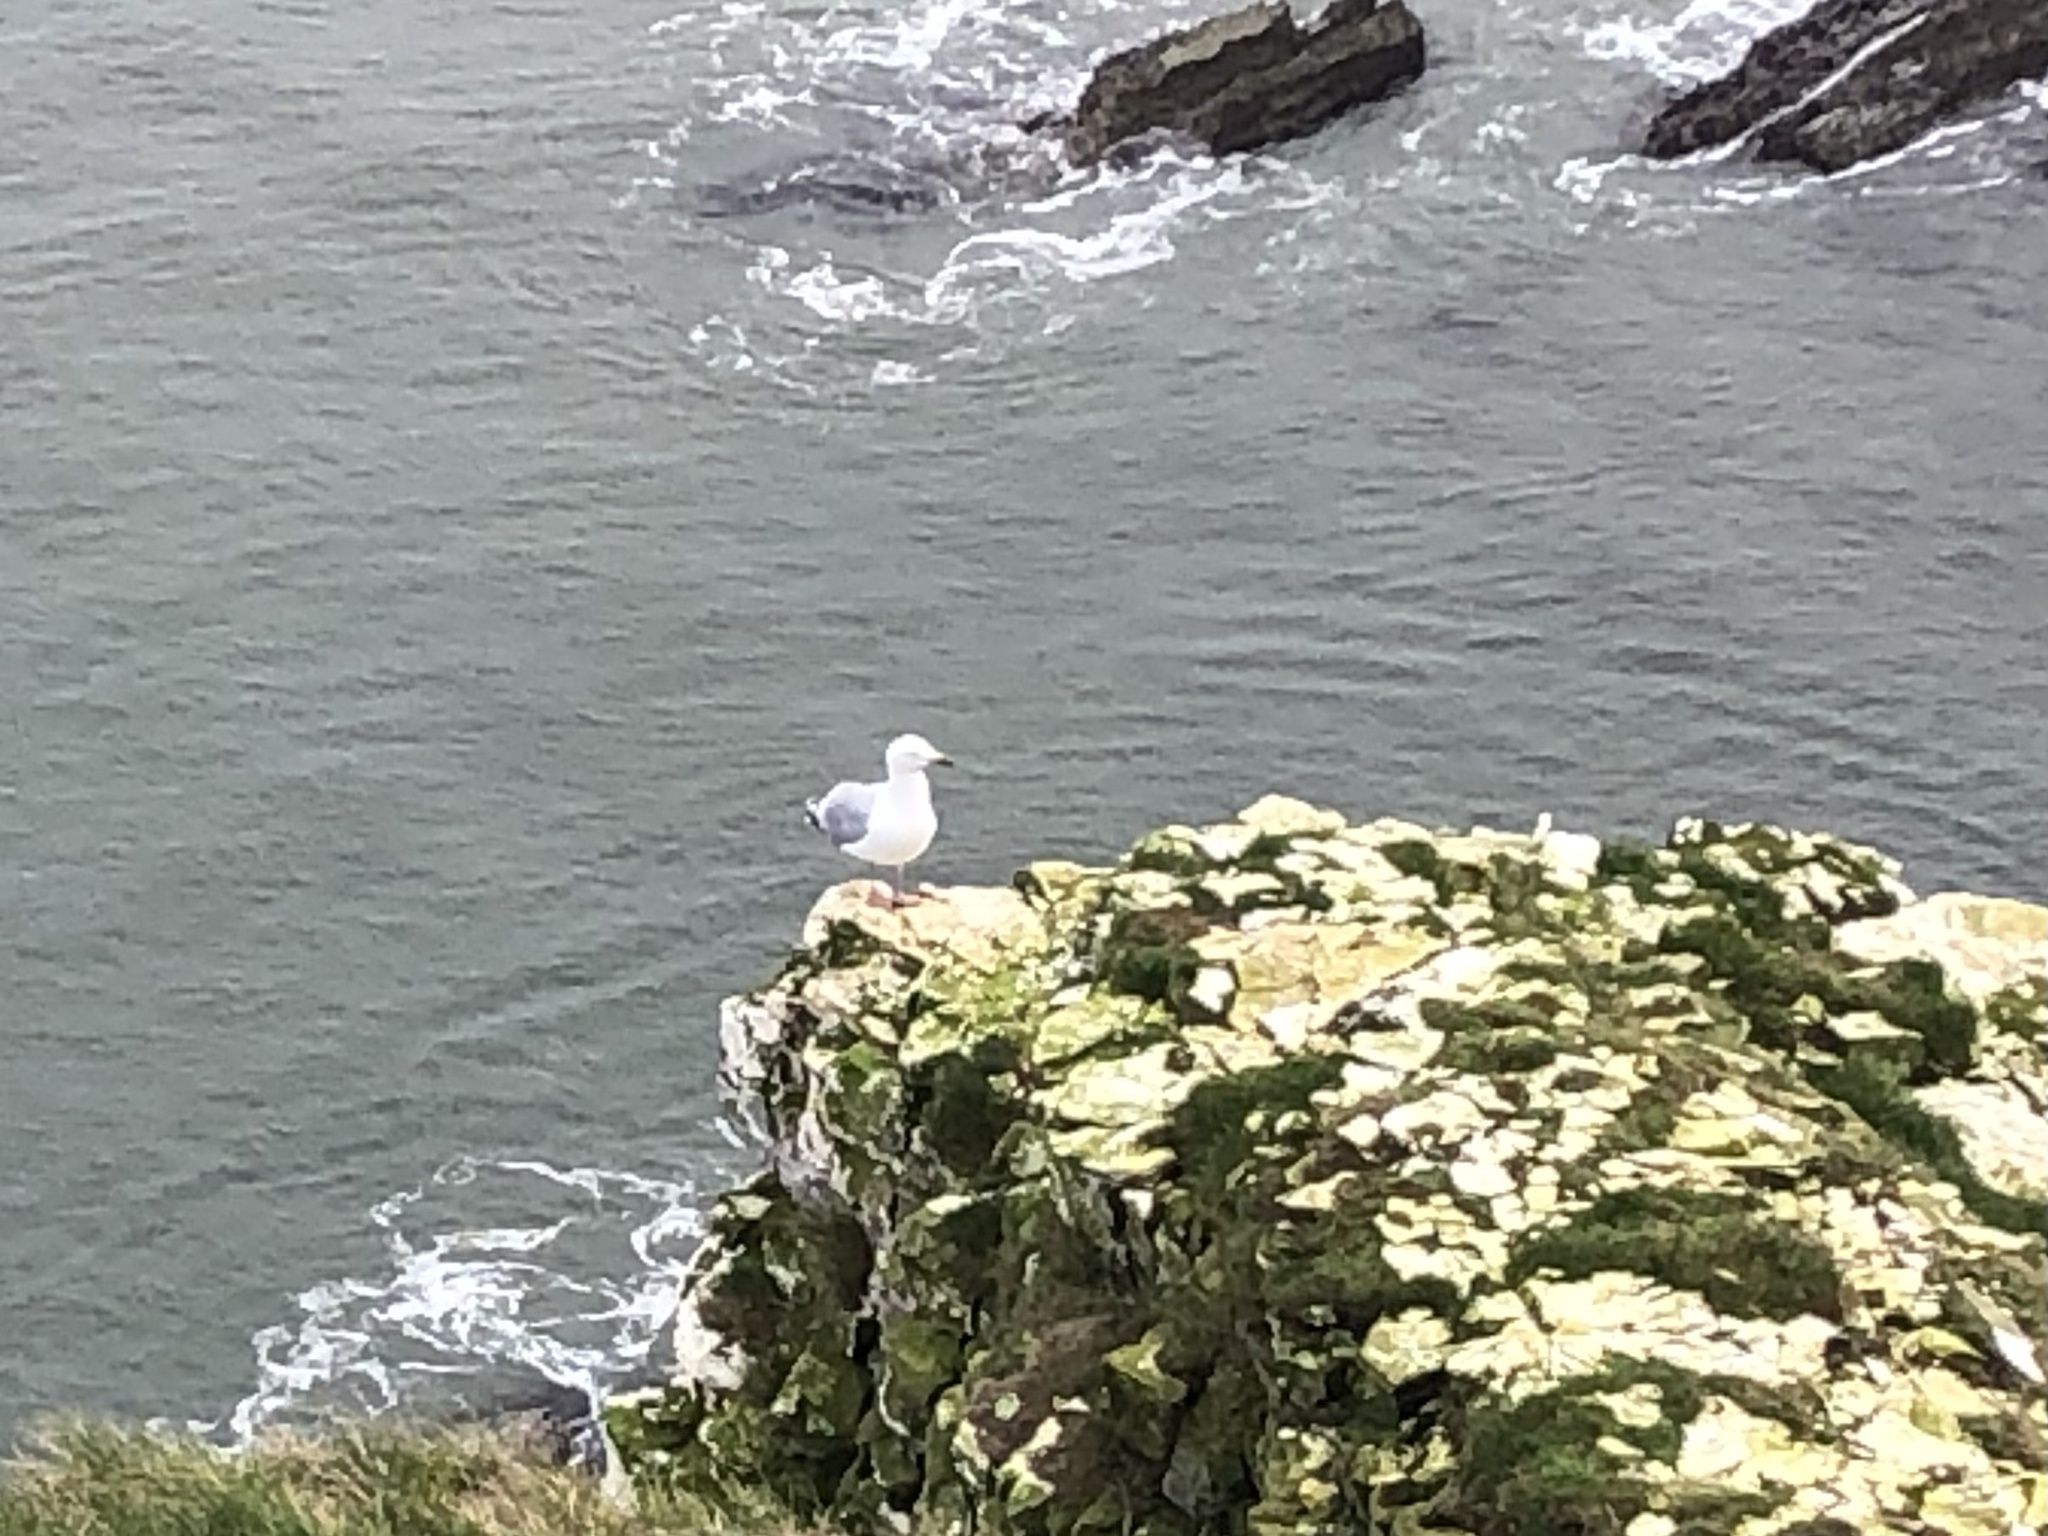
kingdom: Animalia
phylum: Chordata
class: Aves
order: Charadriiformes
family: Laridae
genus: Larus
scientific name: Larus argentatus
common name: Herring gull
